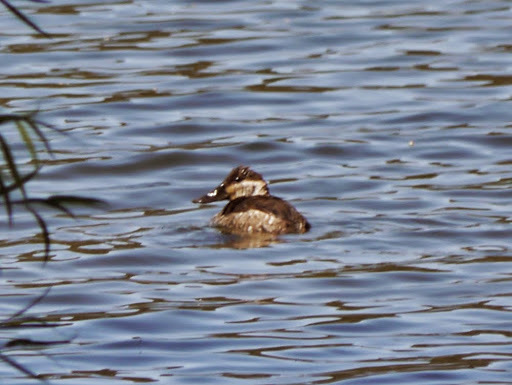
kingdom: Animalia
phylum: Chordata
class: Aves
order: Anseriformes
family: Anatidae
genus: Oxyura
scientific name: Oxyura jamaicensis
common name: Ruddy duck
